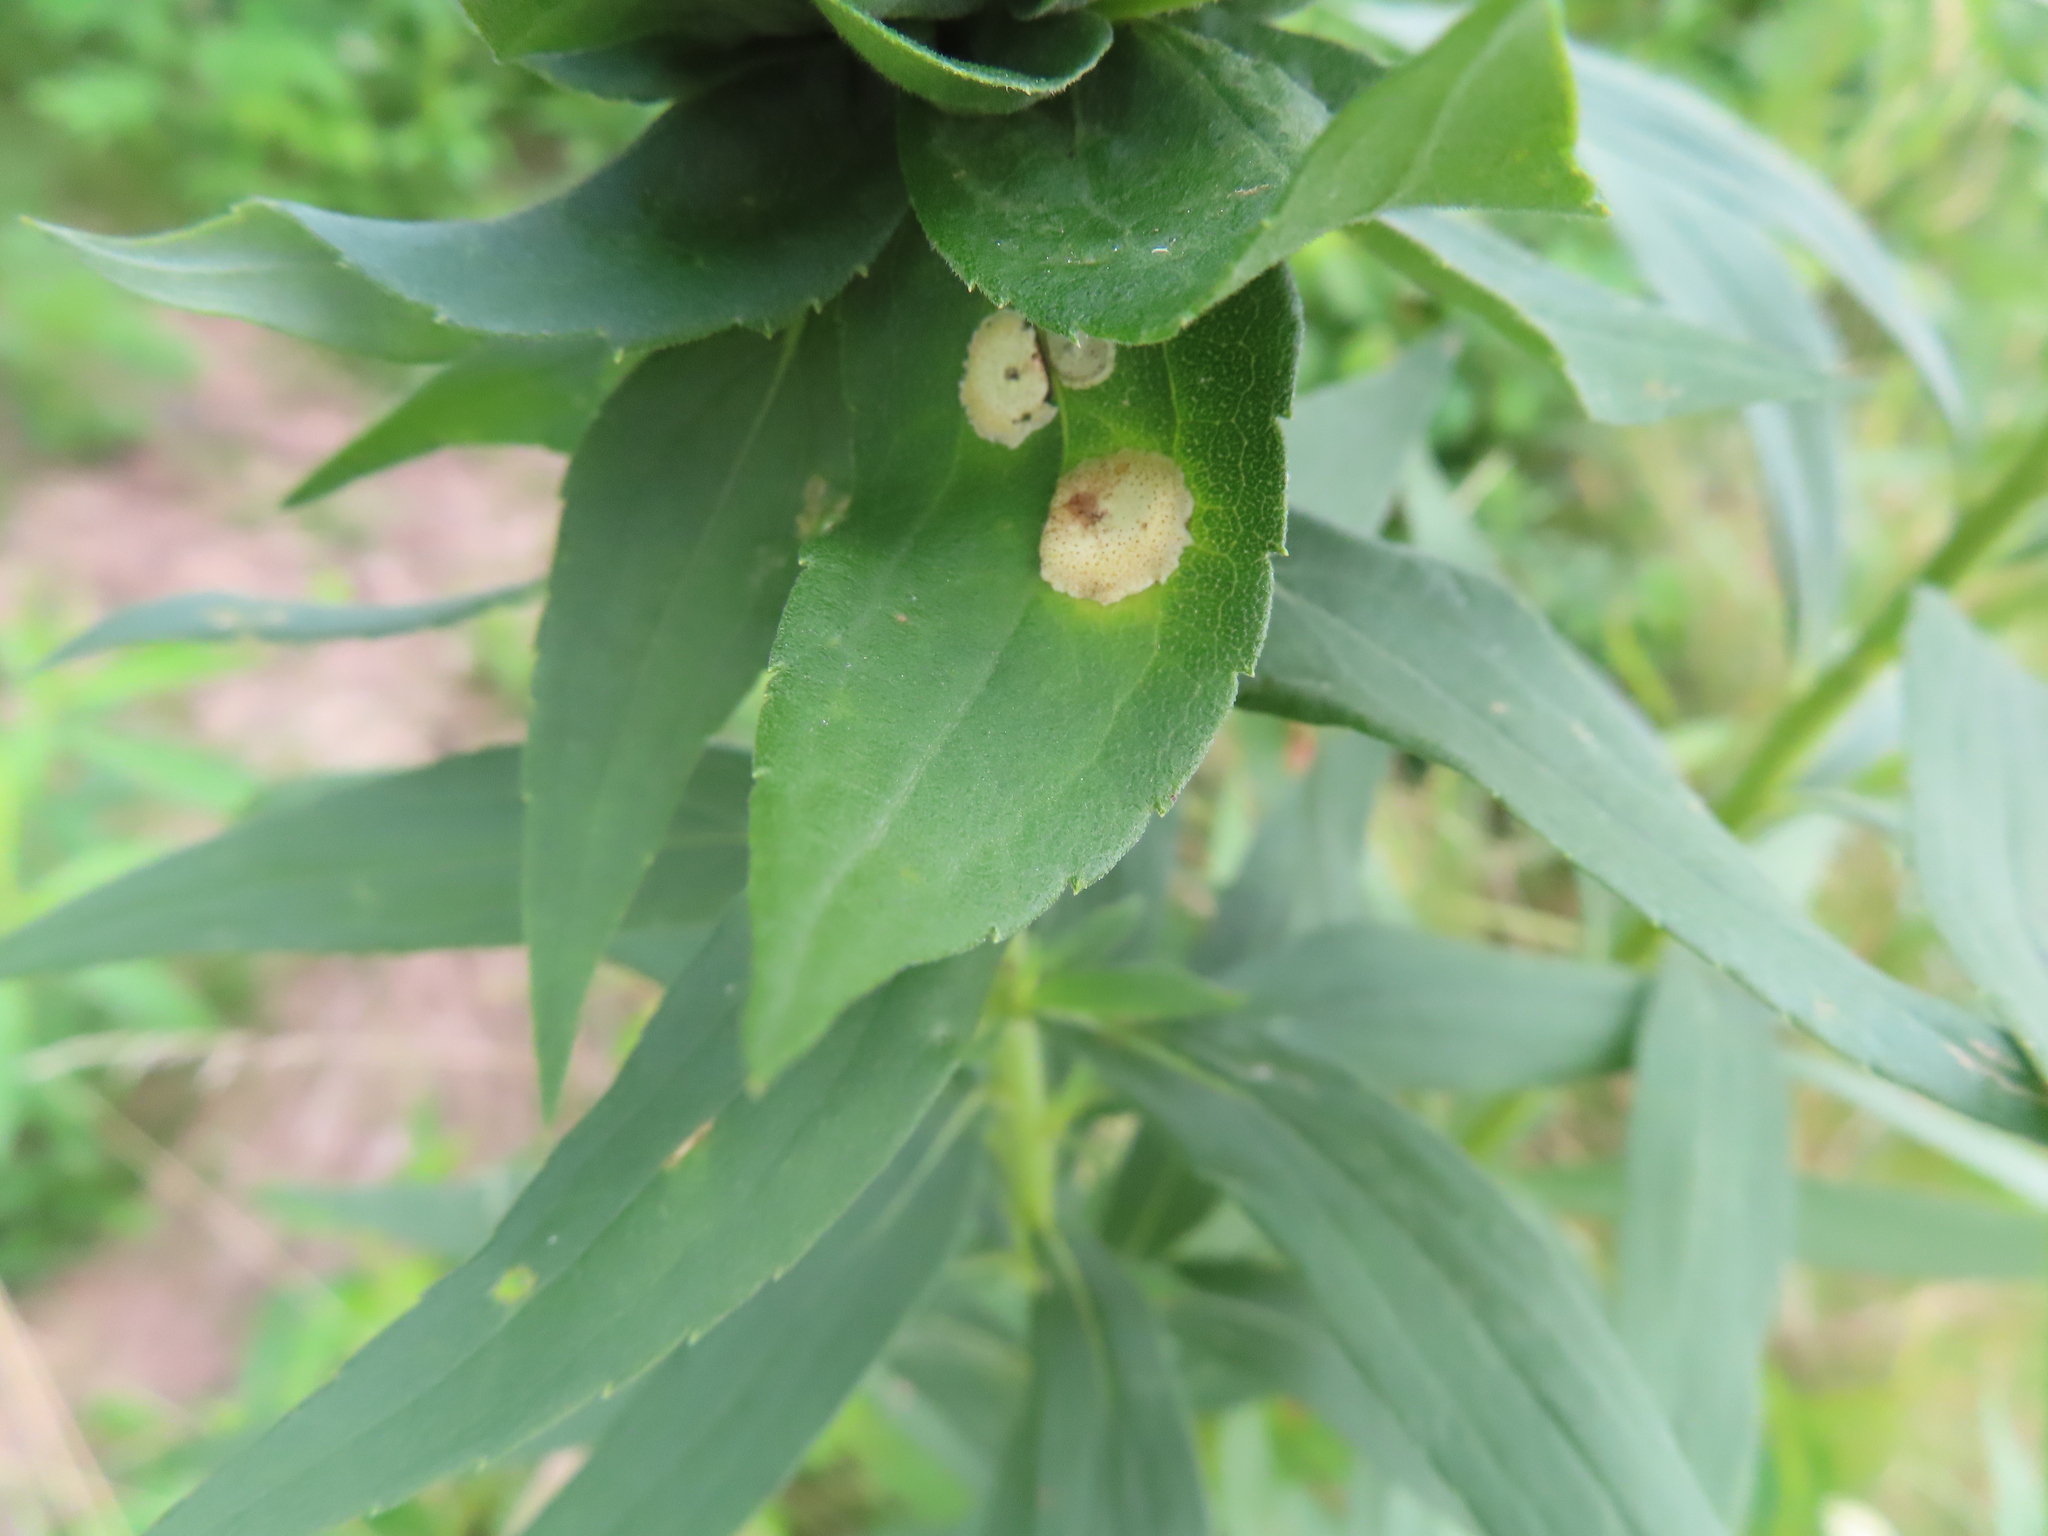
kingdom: Animalia
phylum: Arthropoda
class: Insecta
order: Diptera
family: Cecidomyiidae
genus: Asteromyia
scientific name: Asteromyia carbonifera
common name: Carbonifera goldenrod gall midge
